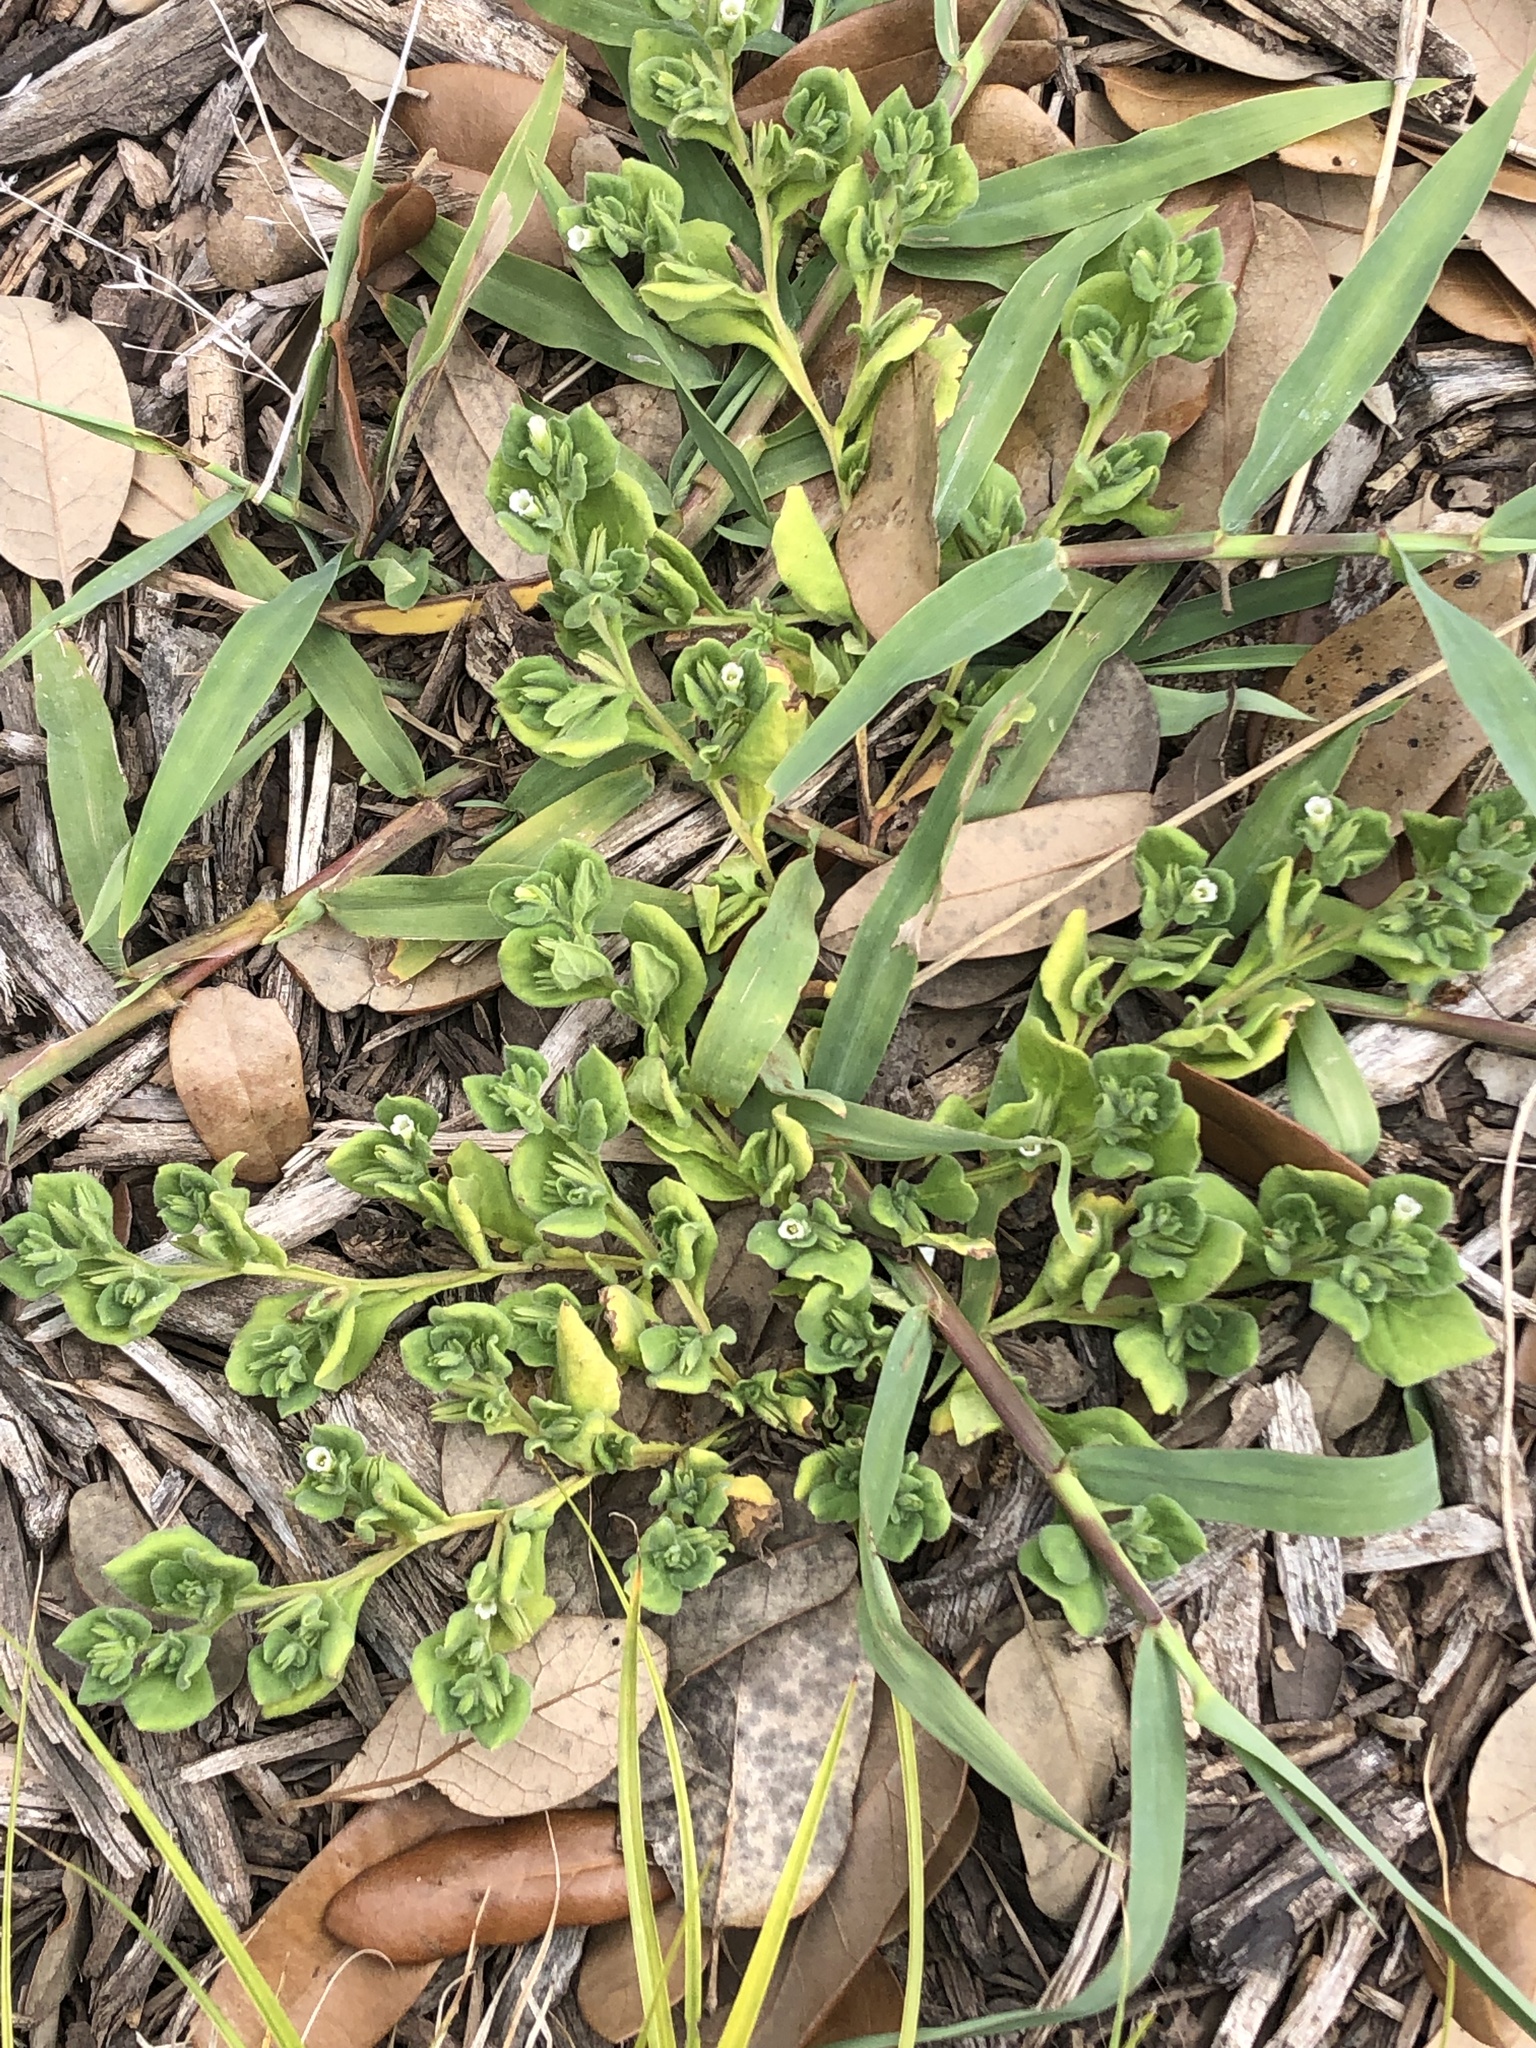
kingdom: Plantae
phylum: Tracheophyta
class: Magnoliopsida
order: Boraginales
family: Namaceae
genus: Nama
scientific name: Nama jamaicensis
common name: Jamaicanweed
